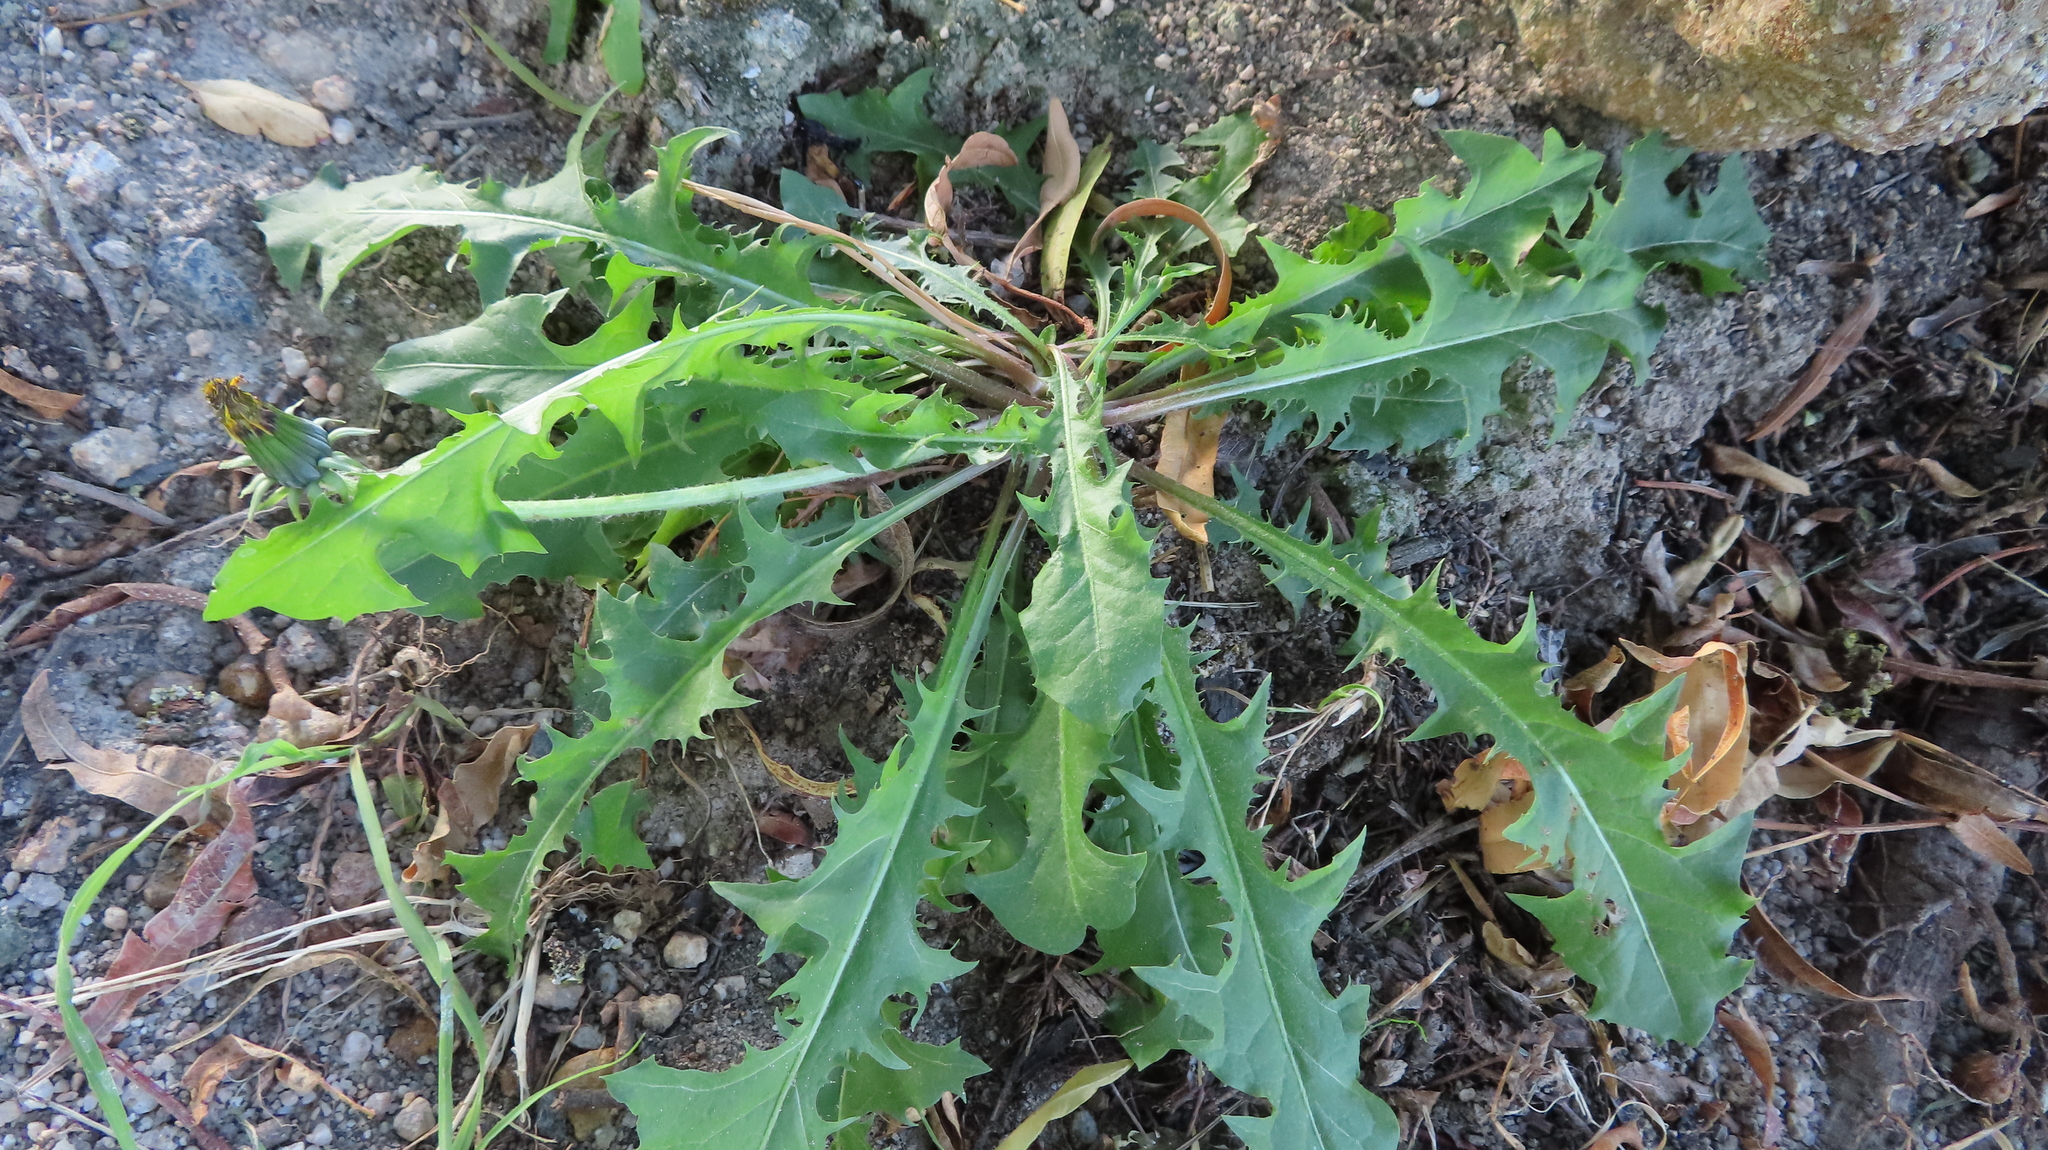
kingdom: Plantae
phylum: Tracheophyta
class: Magnoliopsida
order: Asterales
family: Asteraceae
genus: Taraxacum
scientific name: Taraxacum officinale
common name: Common dandelion
